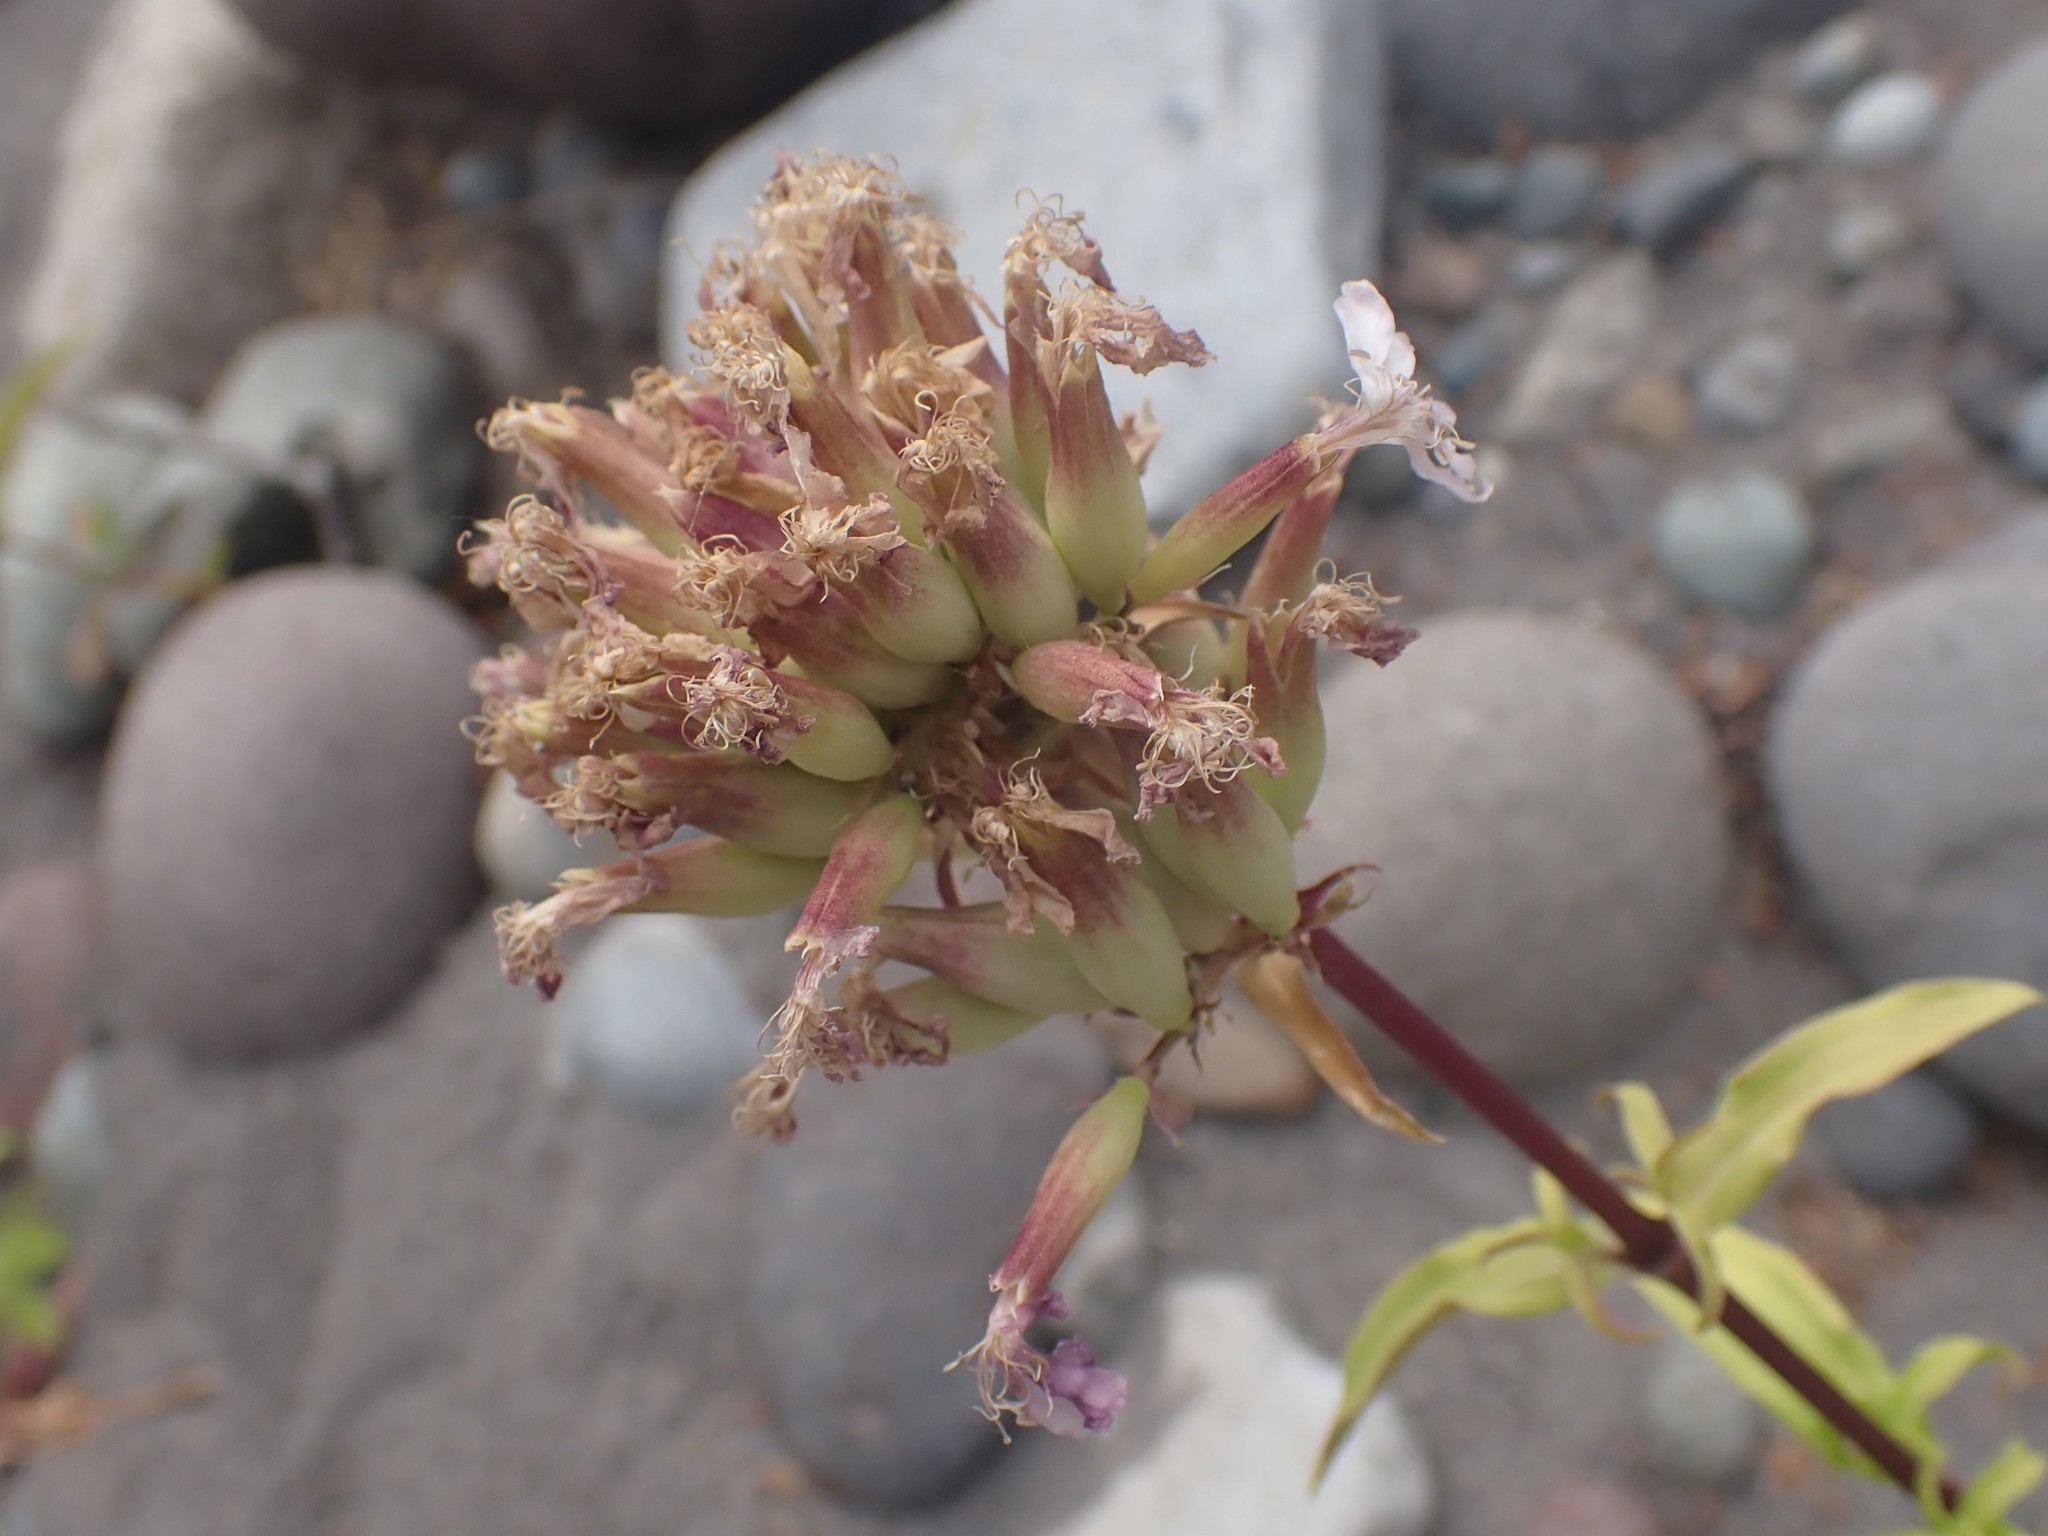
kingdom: Plantae
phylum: Tracheophyta
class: Magnoliopsida
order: Caryophyllales
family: Caryophyllaceae
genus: Saponaria
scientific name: Saponaria officinalis
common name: Soapwort
